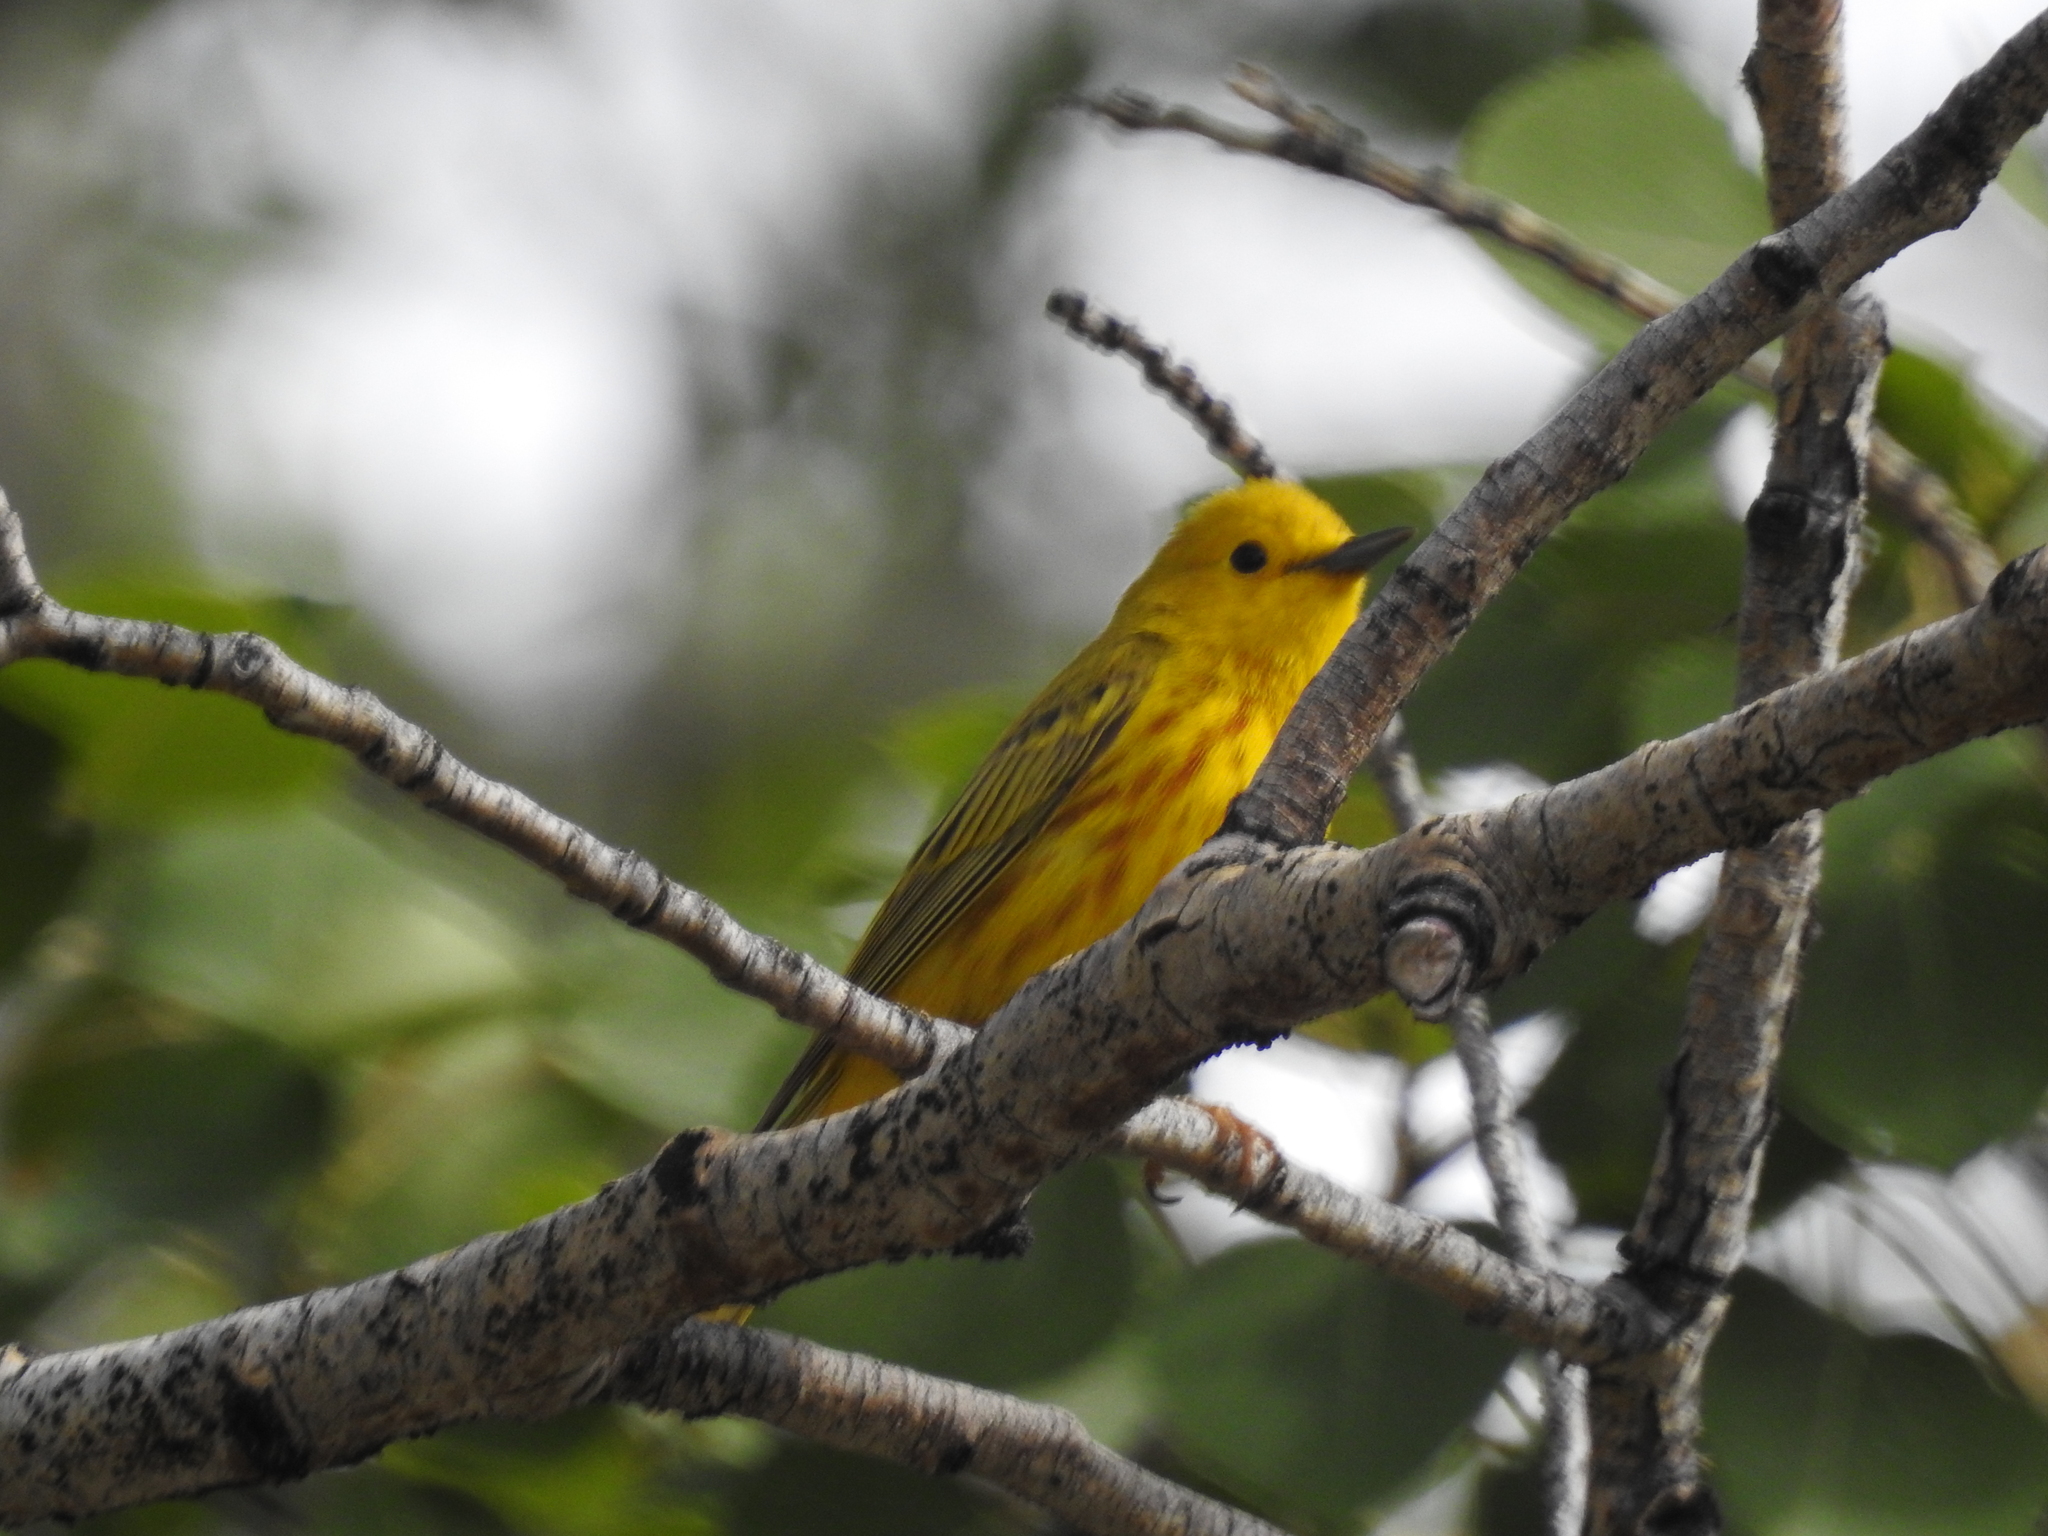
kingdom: Animalia
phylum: Chordata
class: Aves
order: Passeriformes
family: Parulidae
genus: Setophaga
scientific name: Setophaga petechia
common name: Yellow warbler
